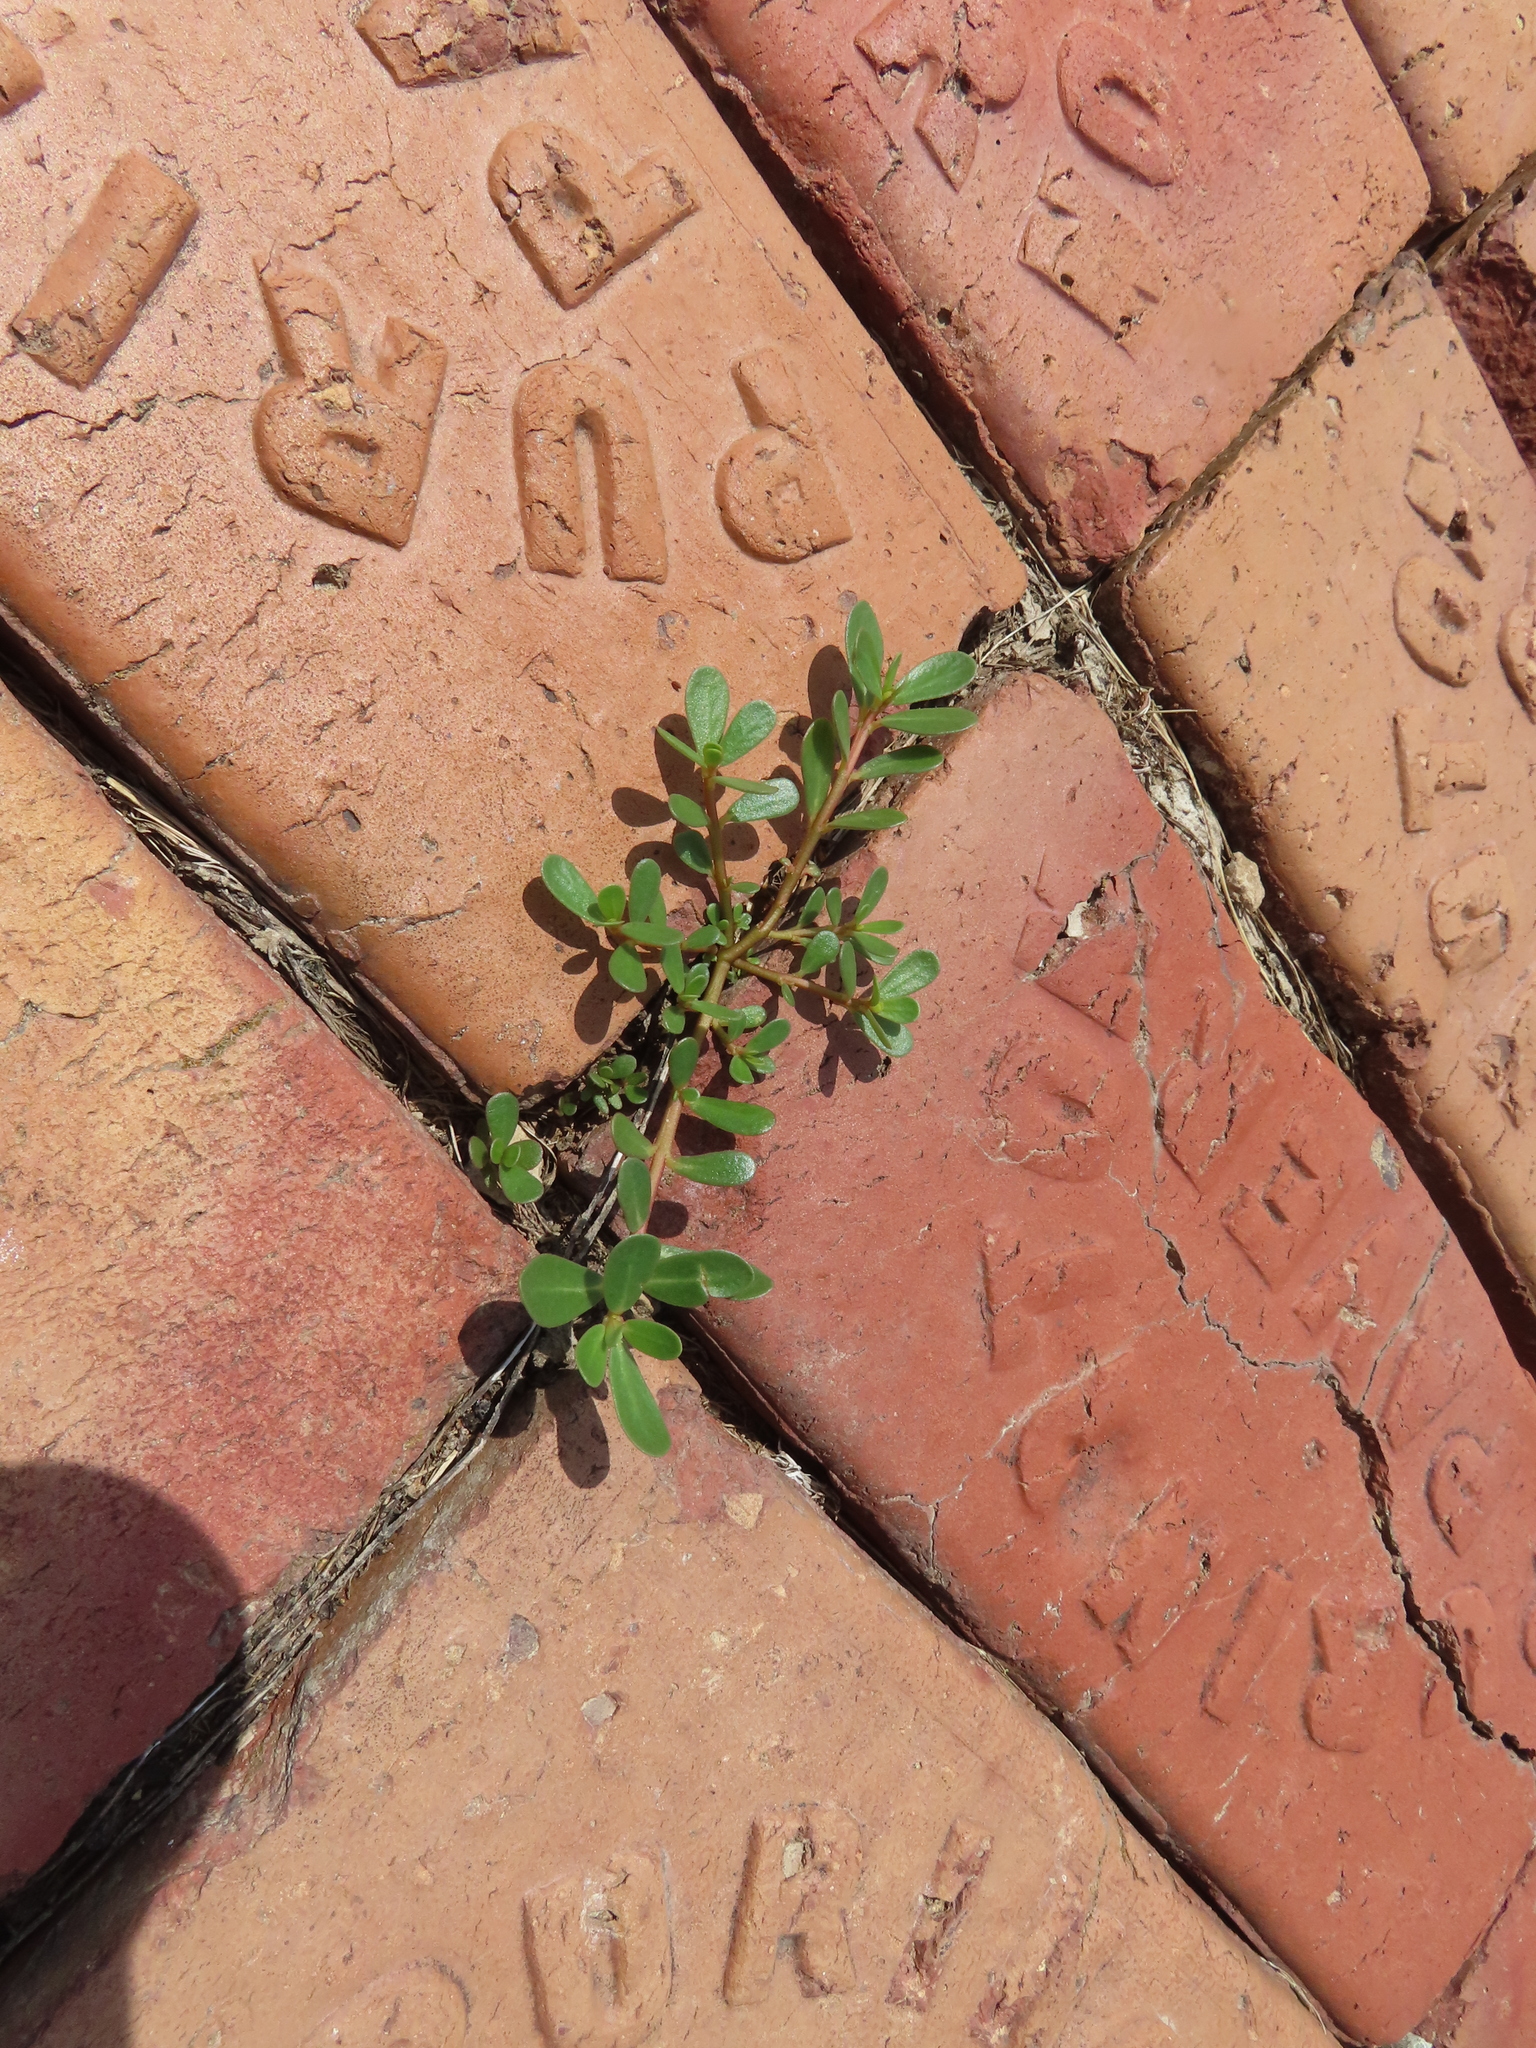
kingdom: Plantae
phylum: Tracheophyta
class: Magnoliopsida
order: Caryophyllales
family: Portulacaceae
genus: Portulaca
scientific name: Portulaca oleracea
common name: Common purslane
